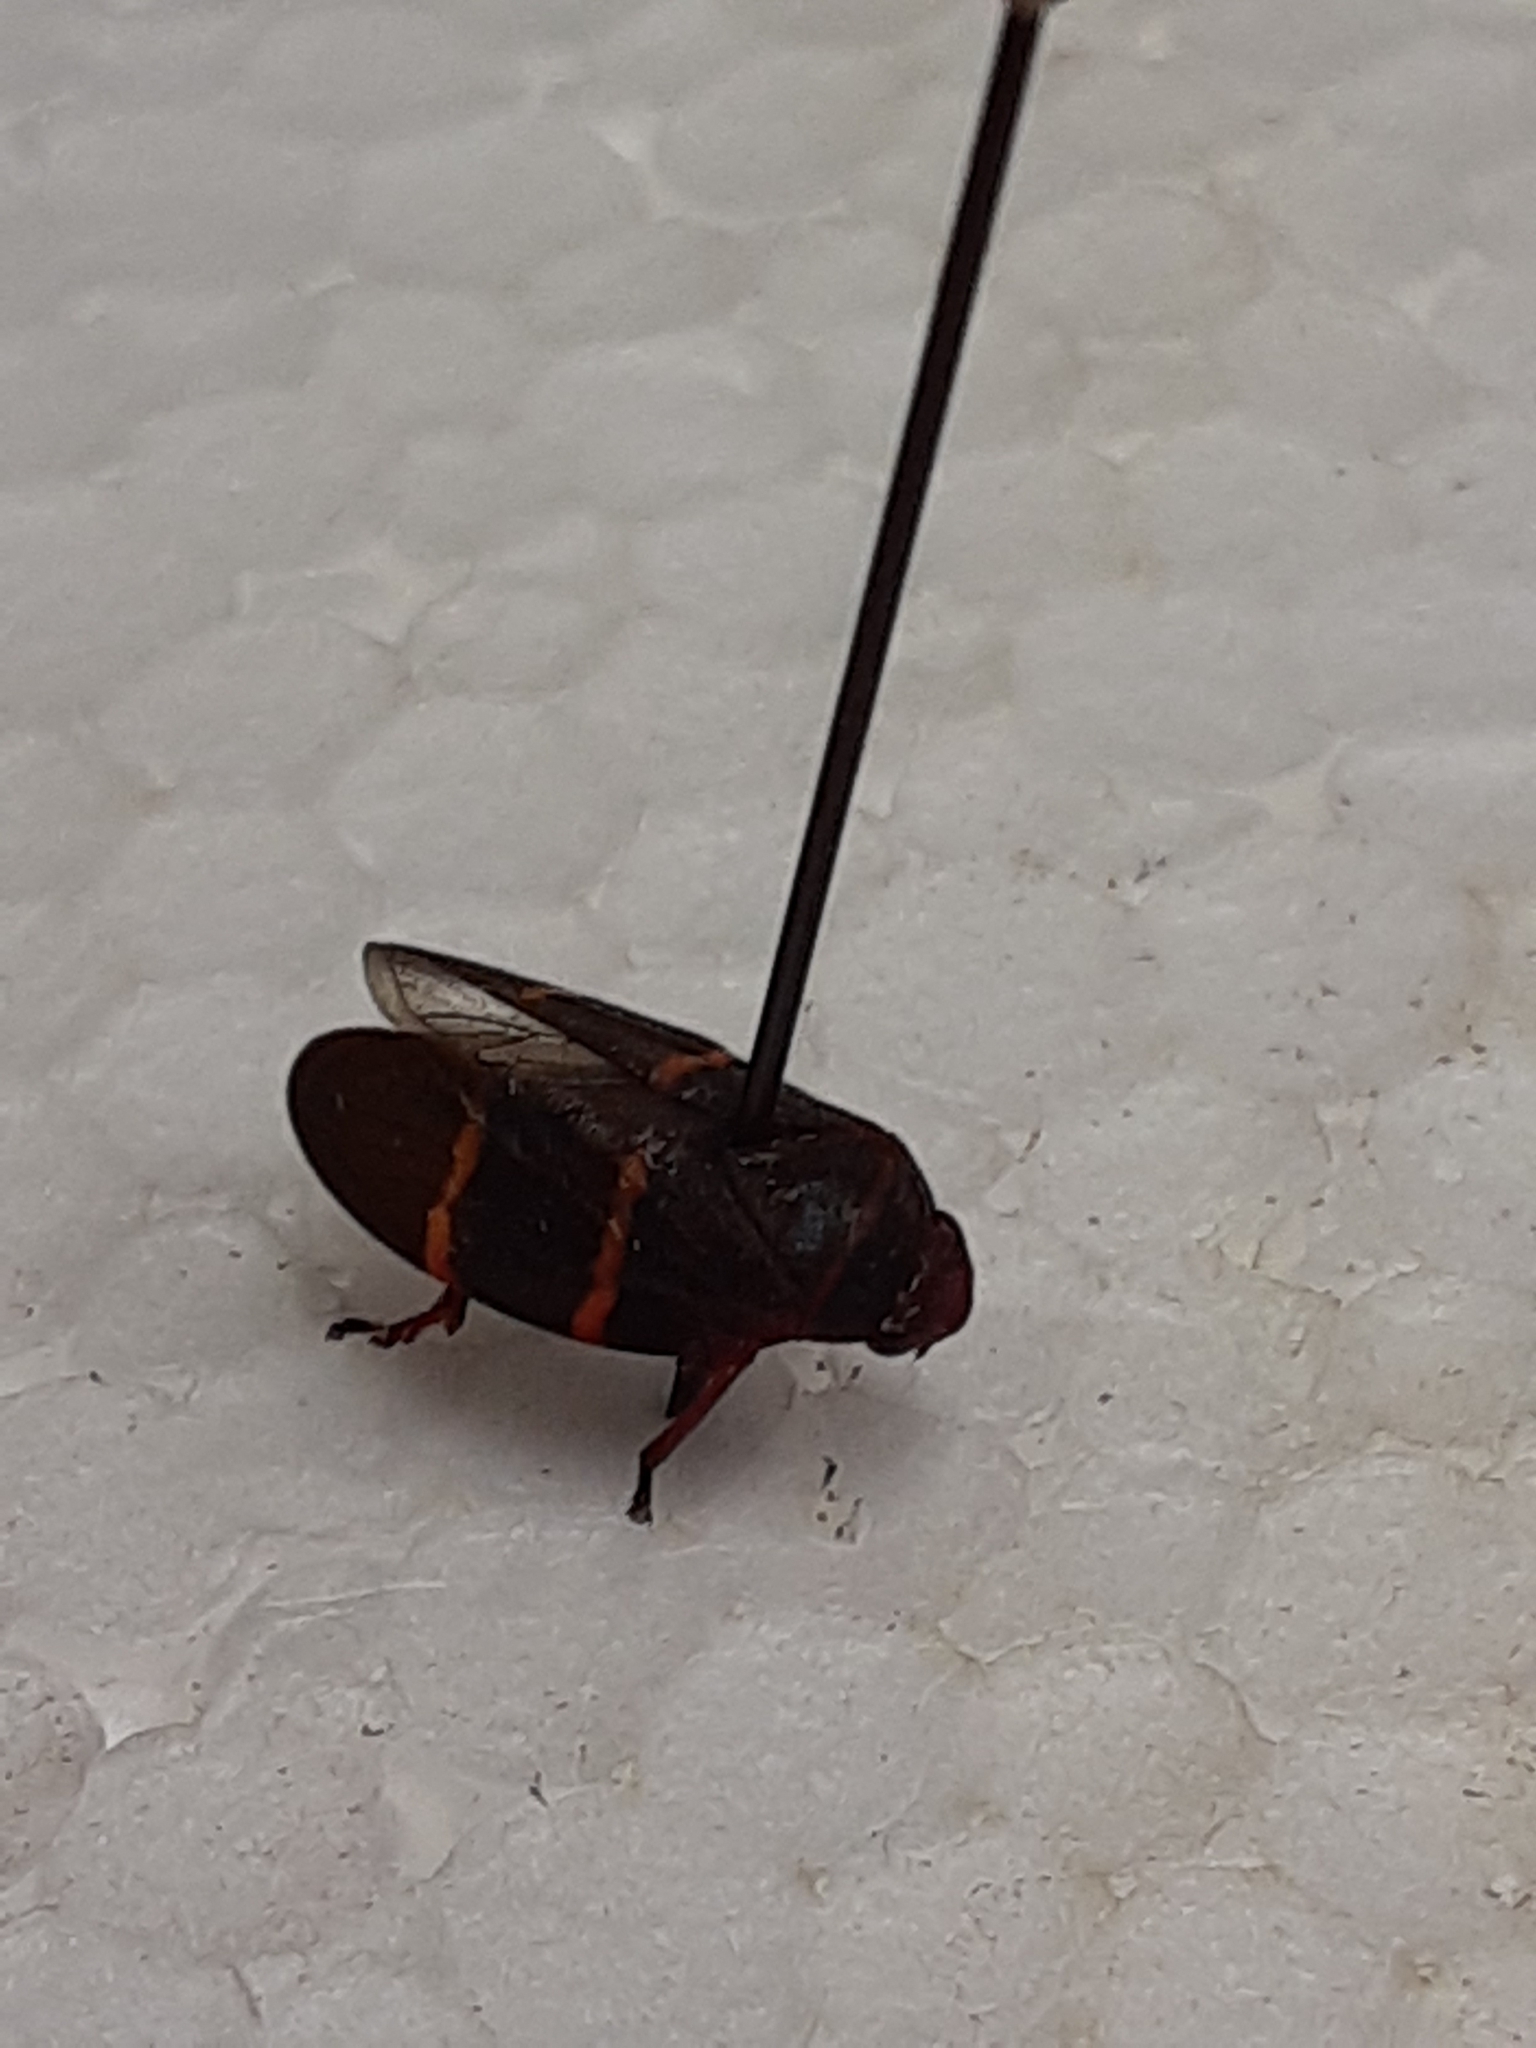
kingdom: Animalia
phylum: Arthropoda
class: Insecta
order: Hemiptera
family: Cercopidae
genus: Prosapia
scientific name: Prosapia bicincta
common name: Twolined spittlebug
